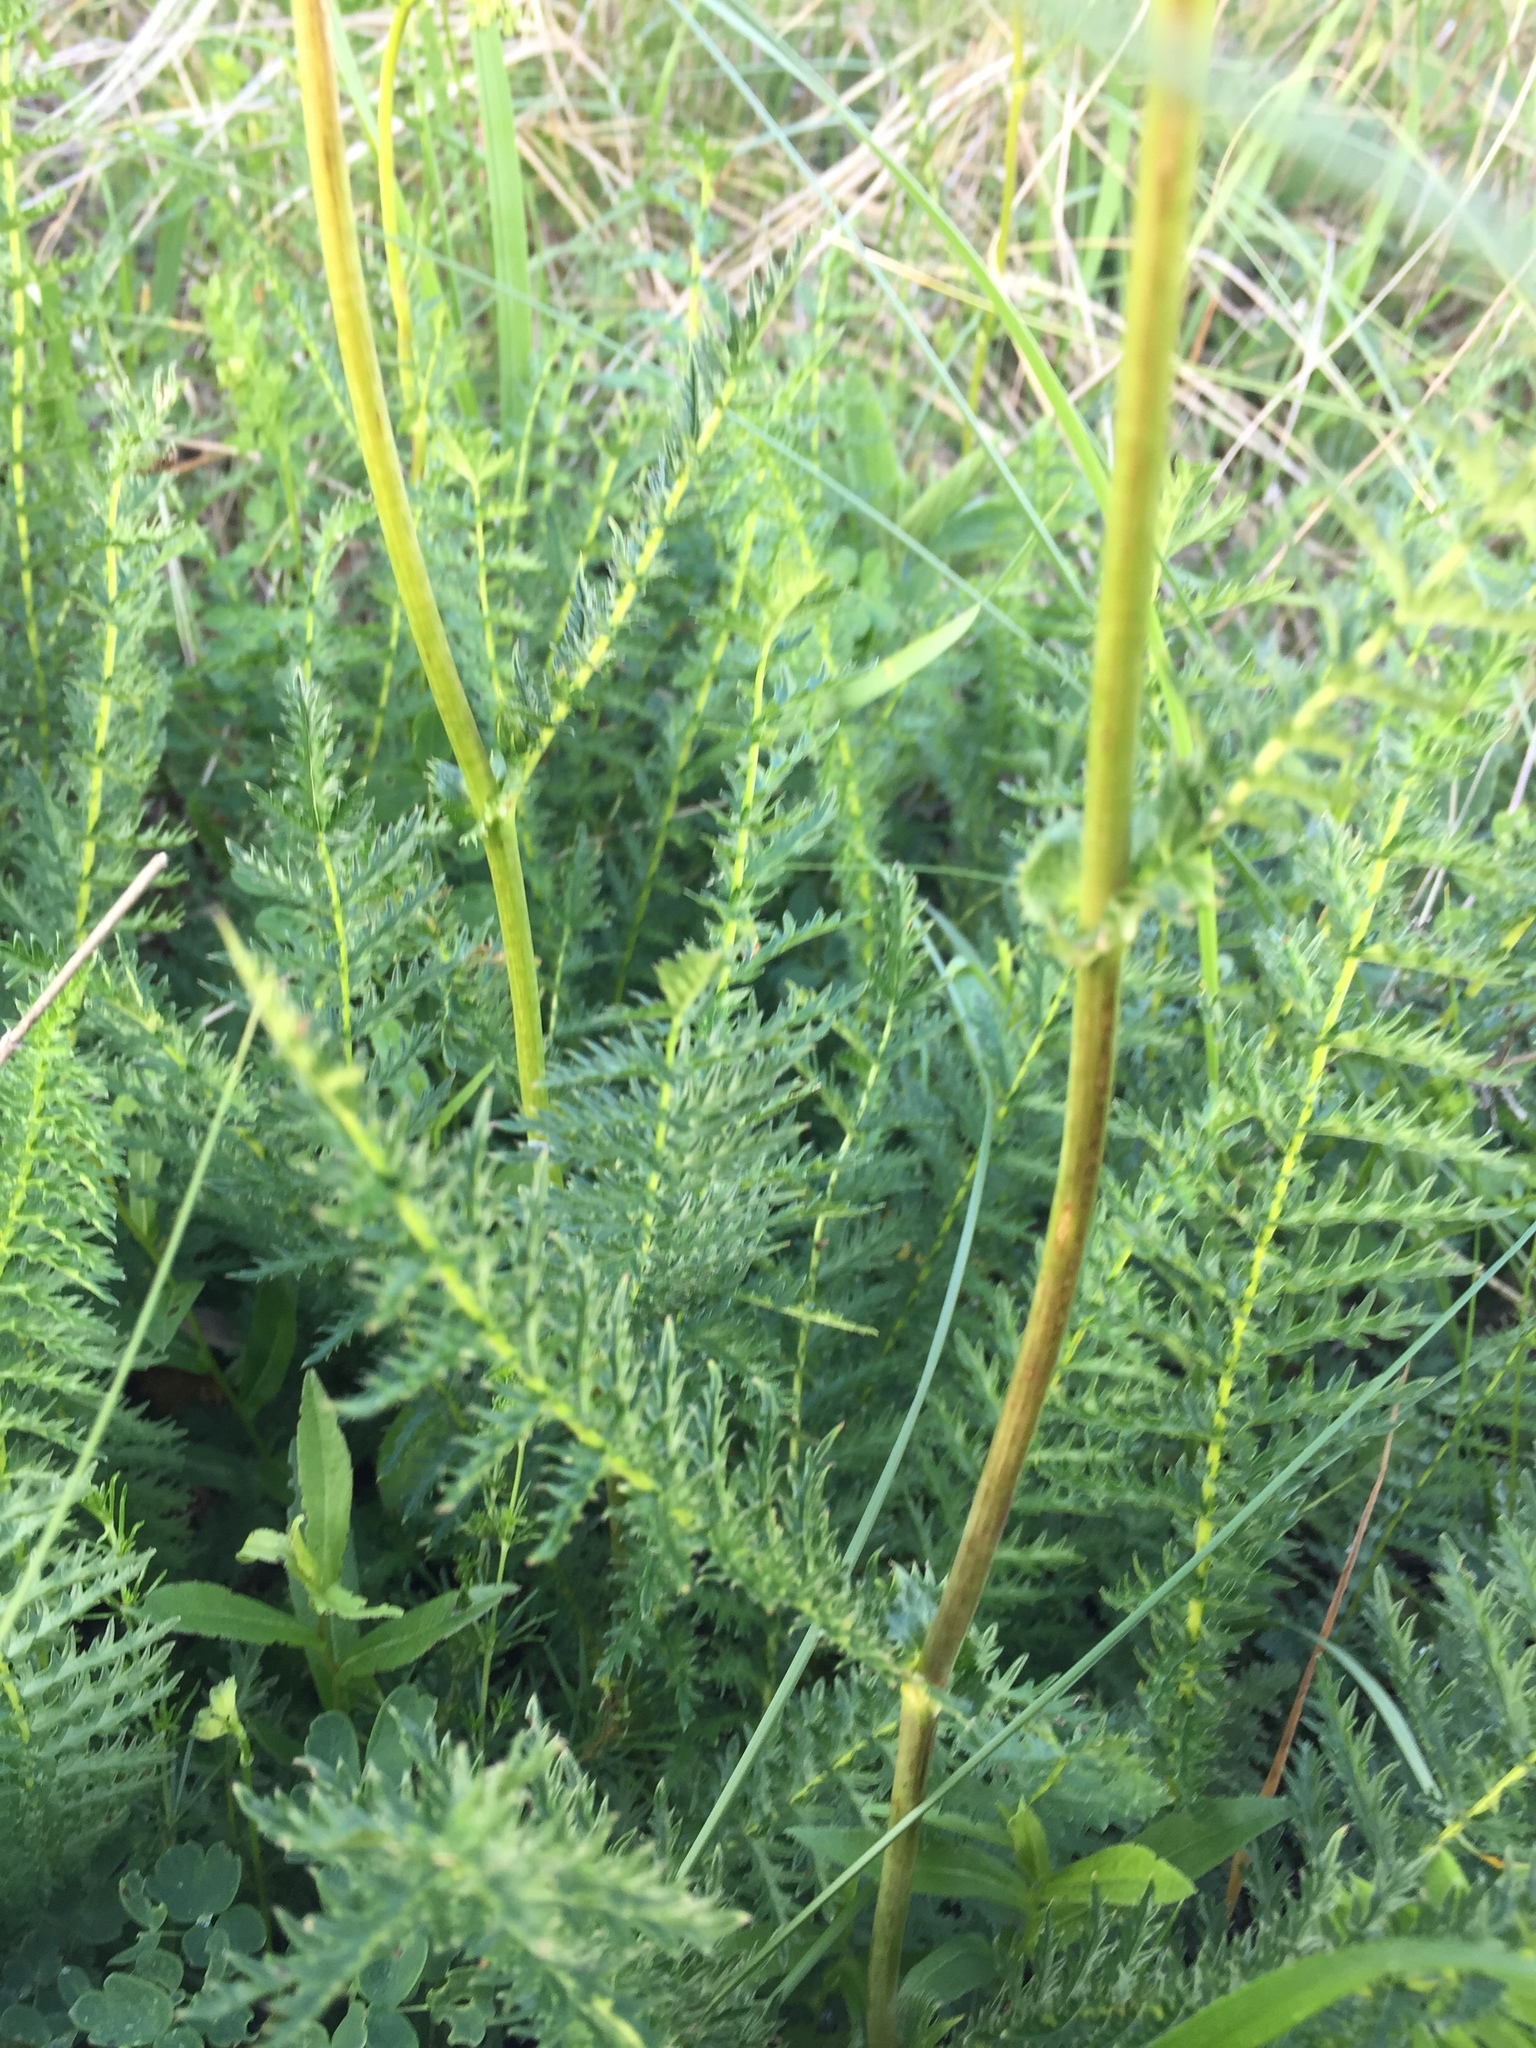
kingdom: Plantae
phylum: Tracheophyta
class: Magnoliopsida
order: Rosales
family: Rosaceae
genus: Filipendula
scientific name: Filipendula vulgaris
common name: Dropwort
